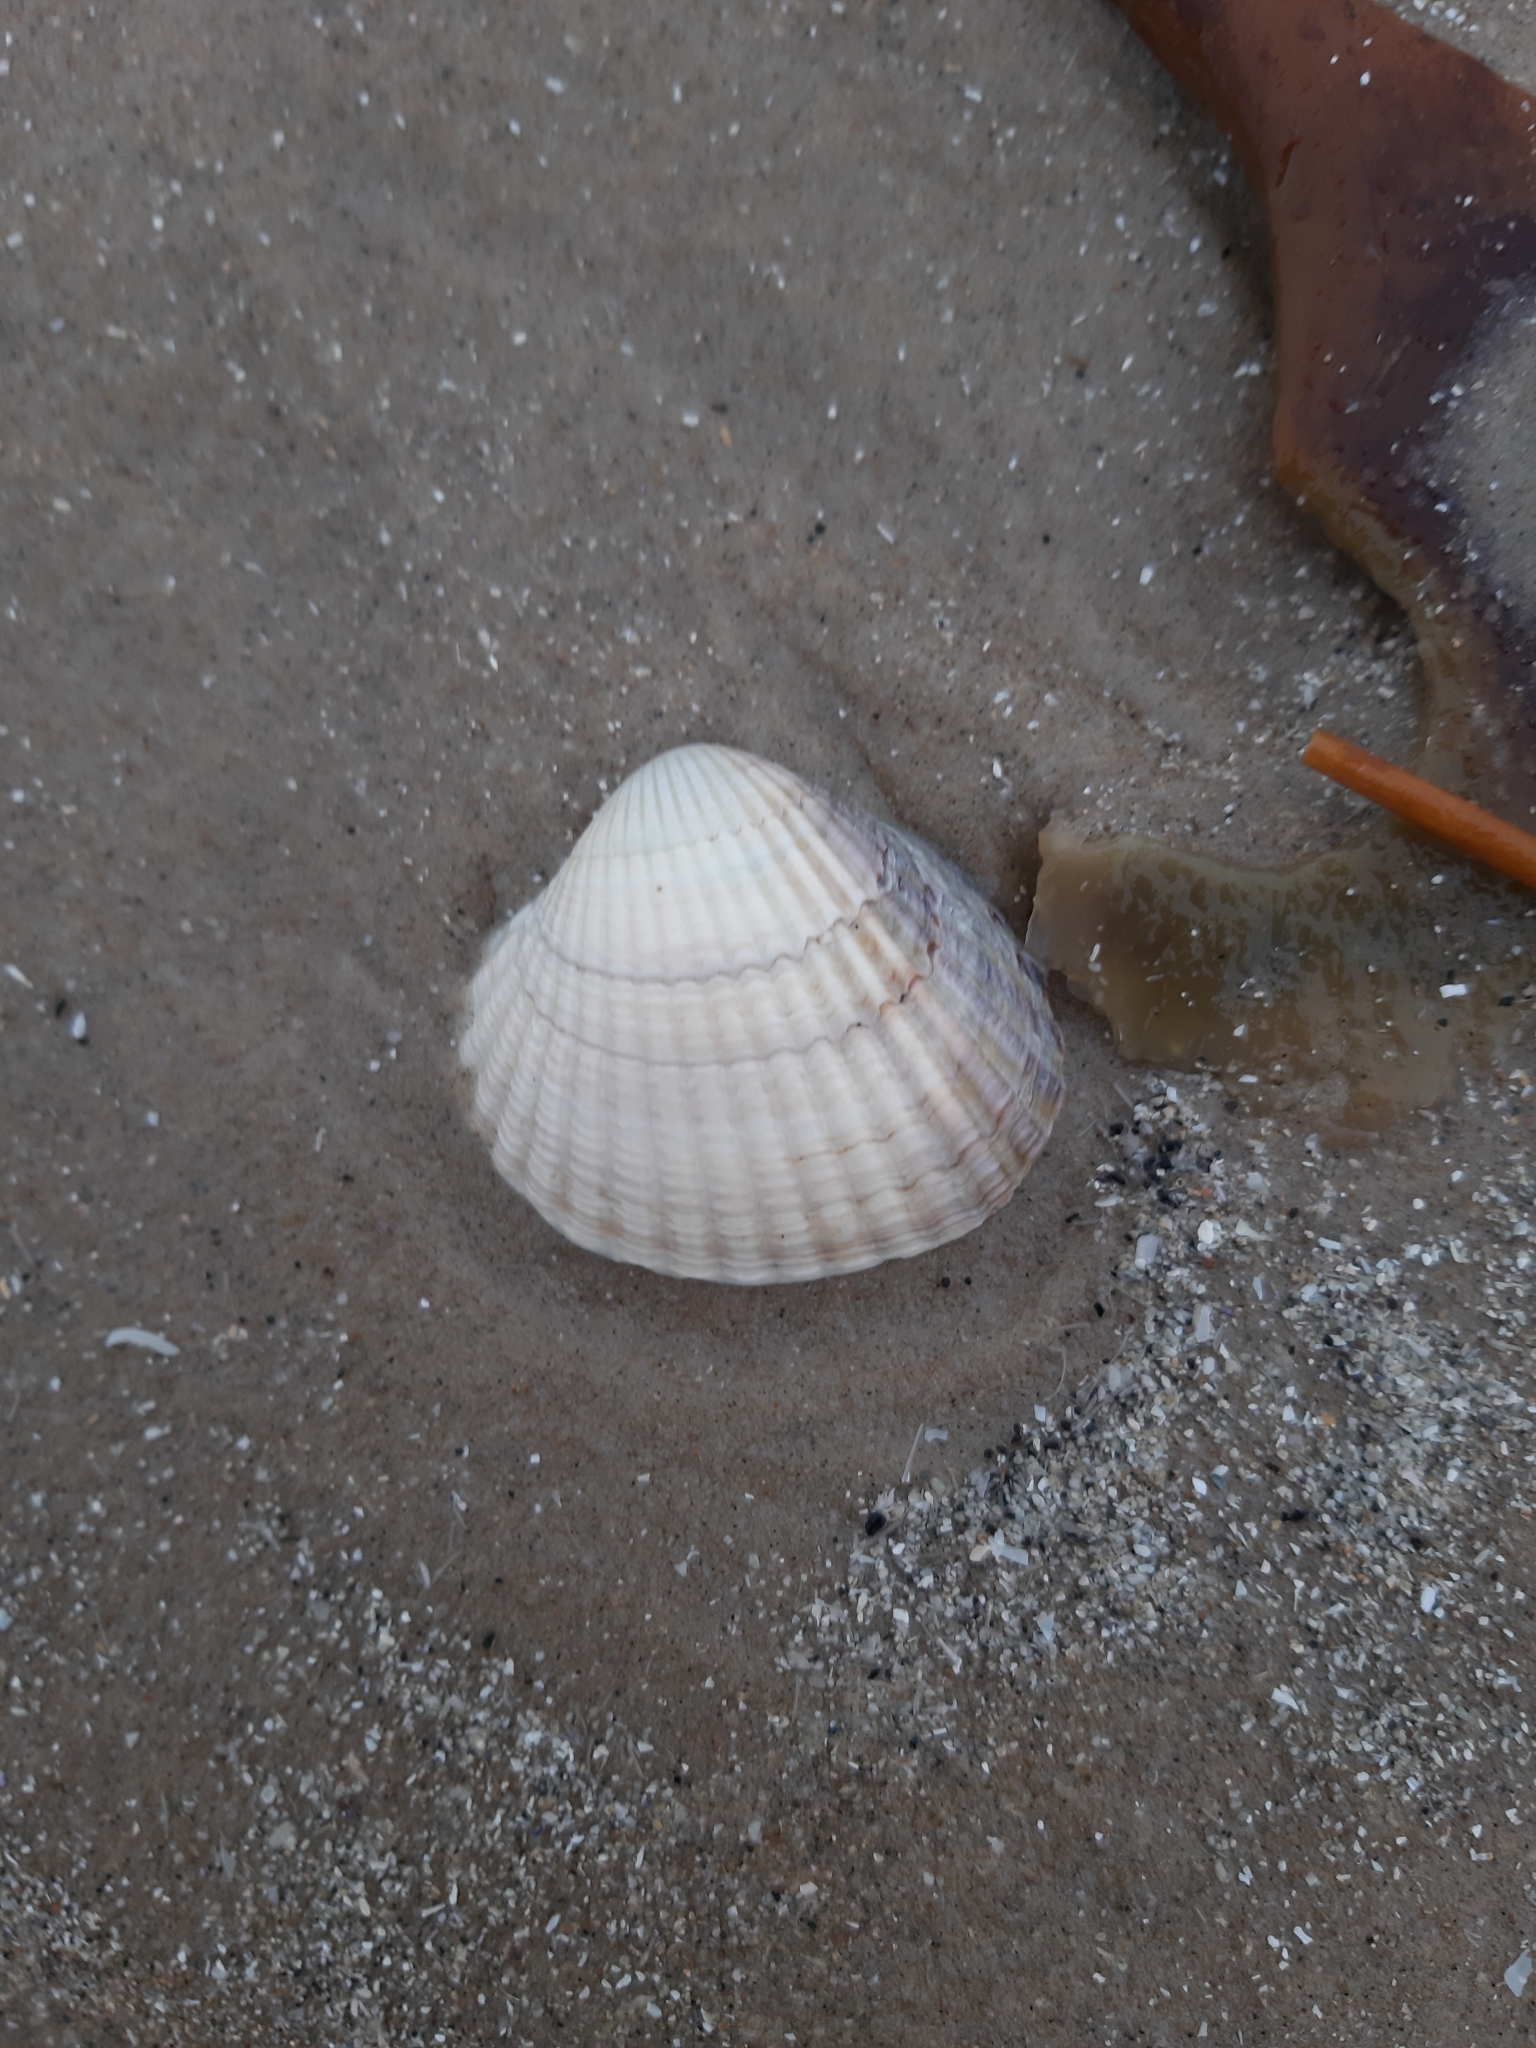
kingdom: Animalia
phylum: Mollusca
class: Bivalvia
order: Cardiida
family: Cardiidae
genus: Cerastoderma
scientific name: Cerastoderma edule
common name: Common cockle
